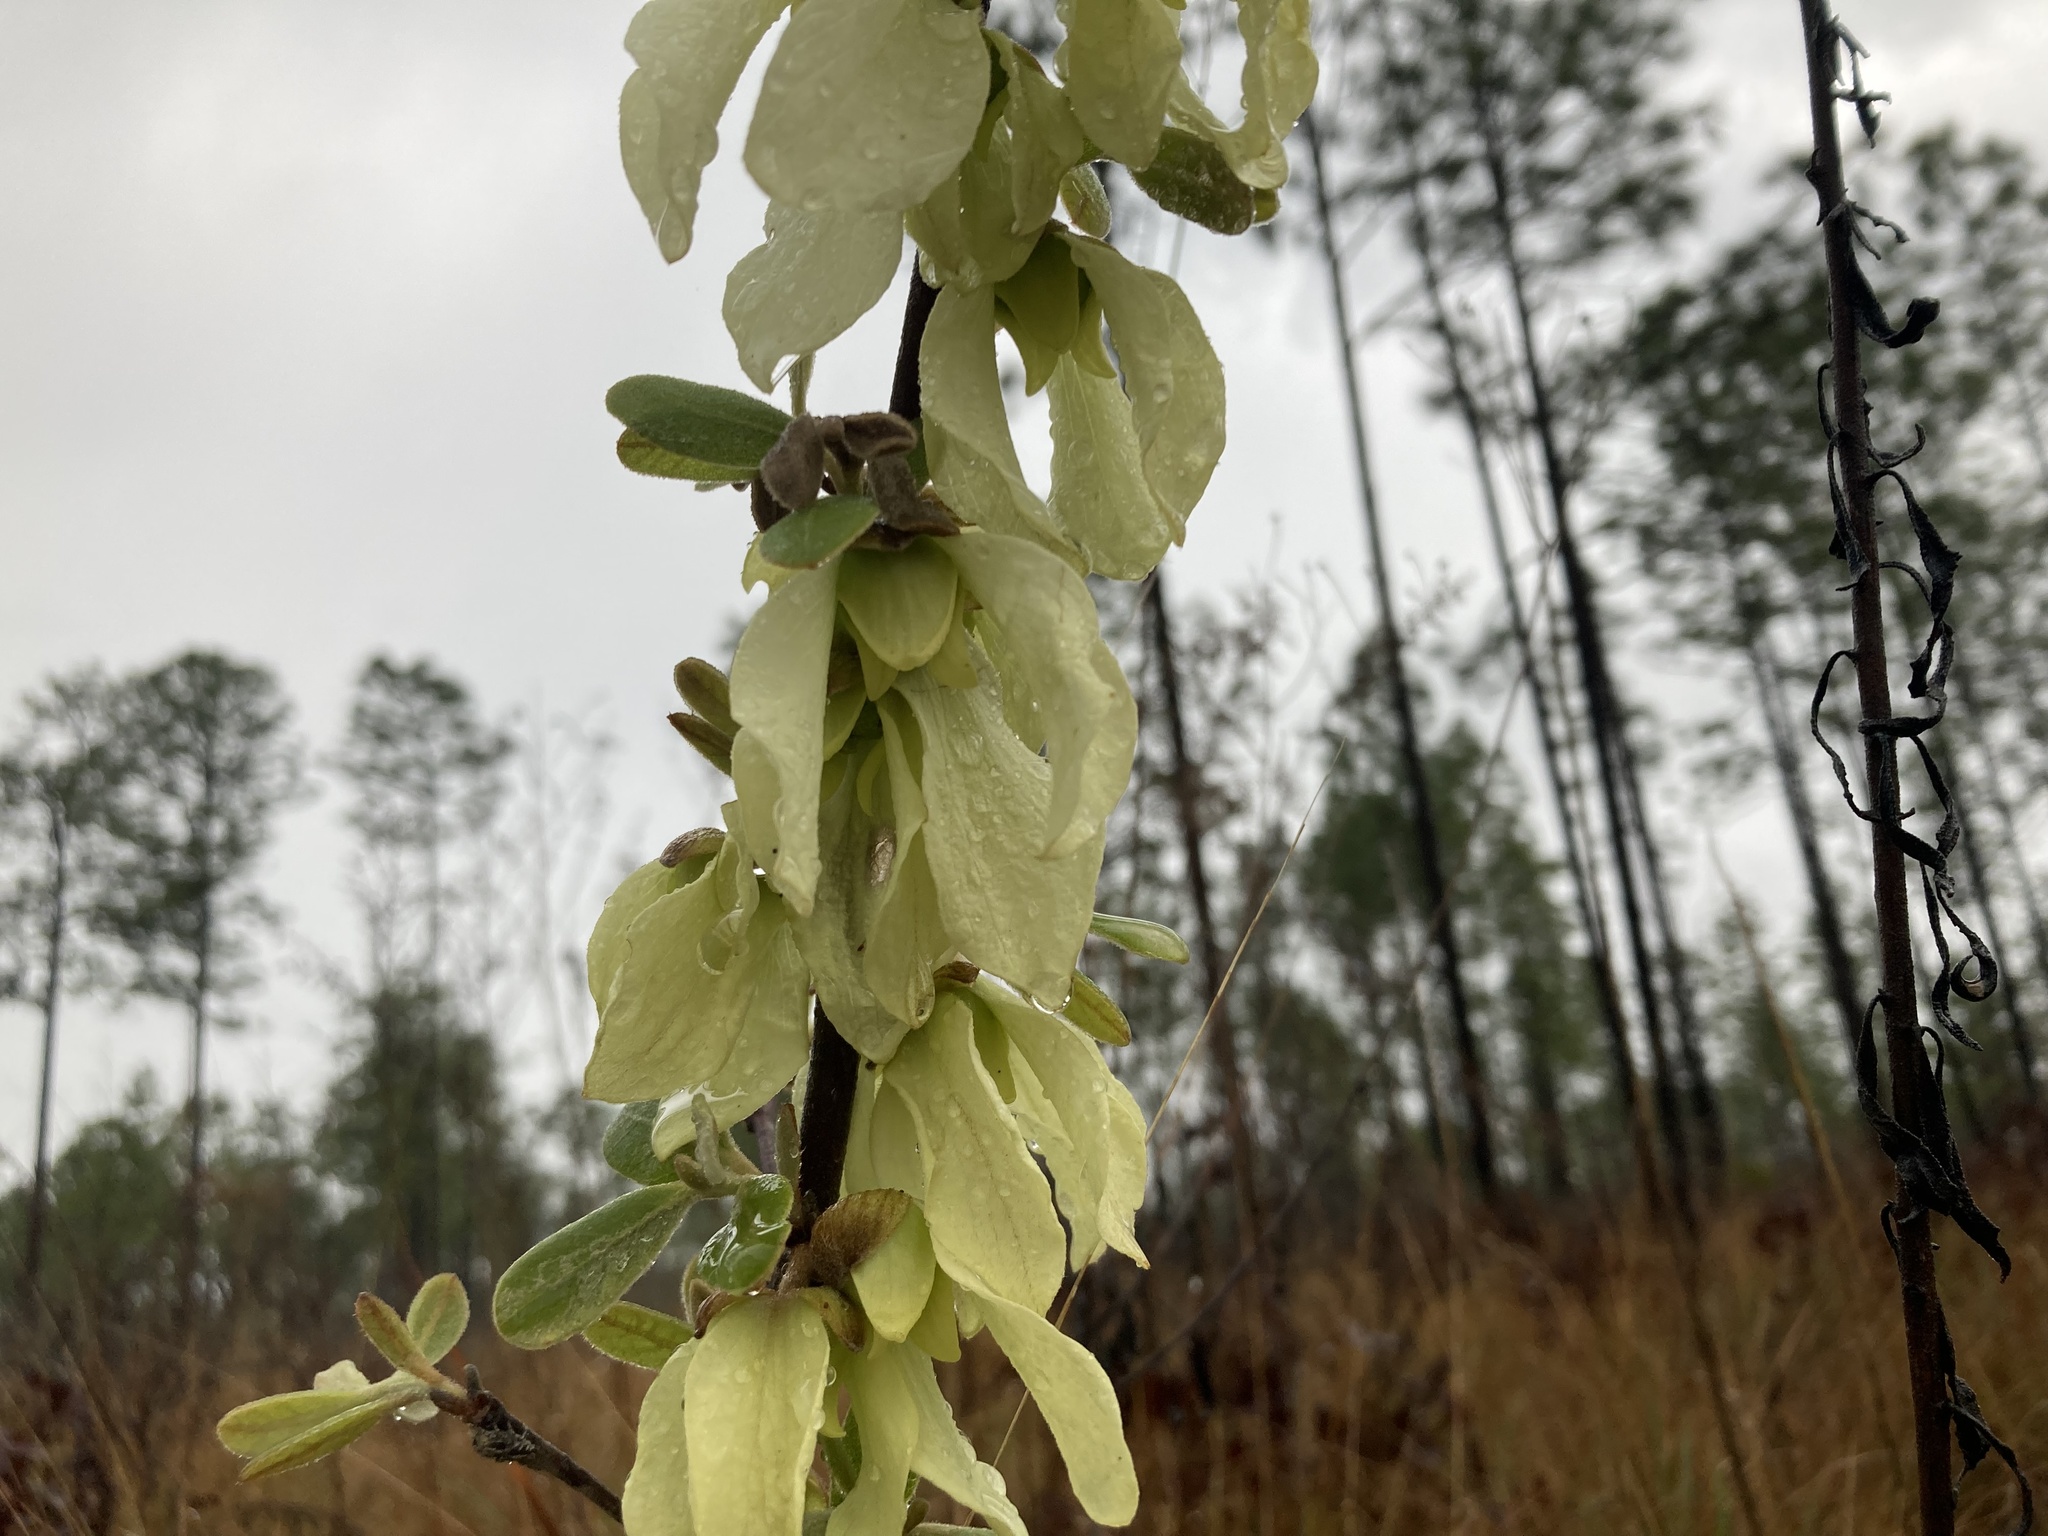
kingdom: Plantae
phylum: Tracheophyta
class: Magnoliopsida
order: Magnoliales
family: Annonaceae
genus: Asimina
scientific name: Asimina speciosa
